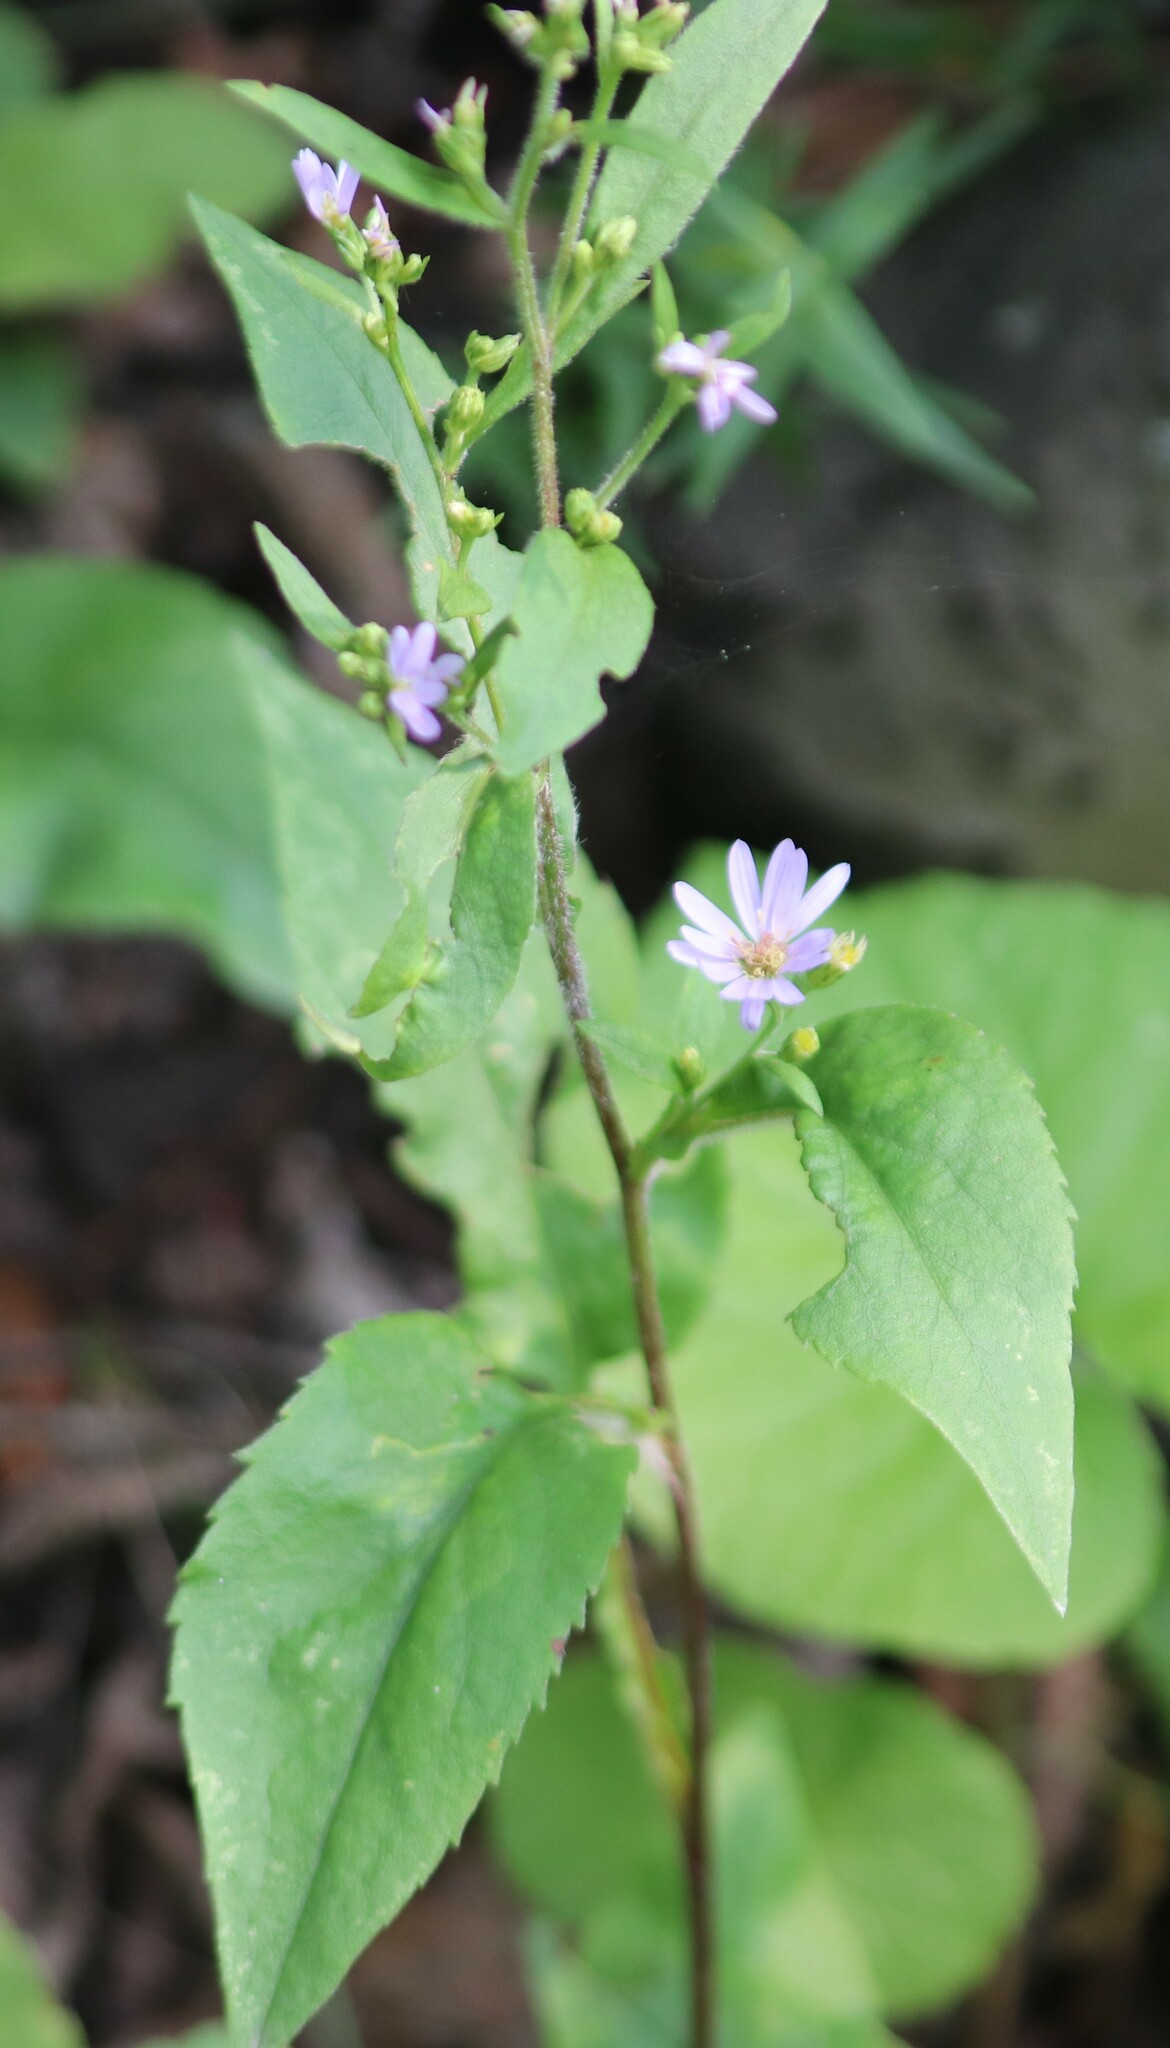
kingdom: Plantae
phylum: Tracheophyta
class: Magnoliopsida
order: Asterales
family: Asteraceae
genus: Symphyotrichum
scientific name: Symphyotrichum ciliolatum
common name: Fringed blue aster
